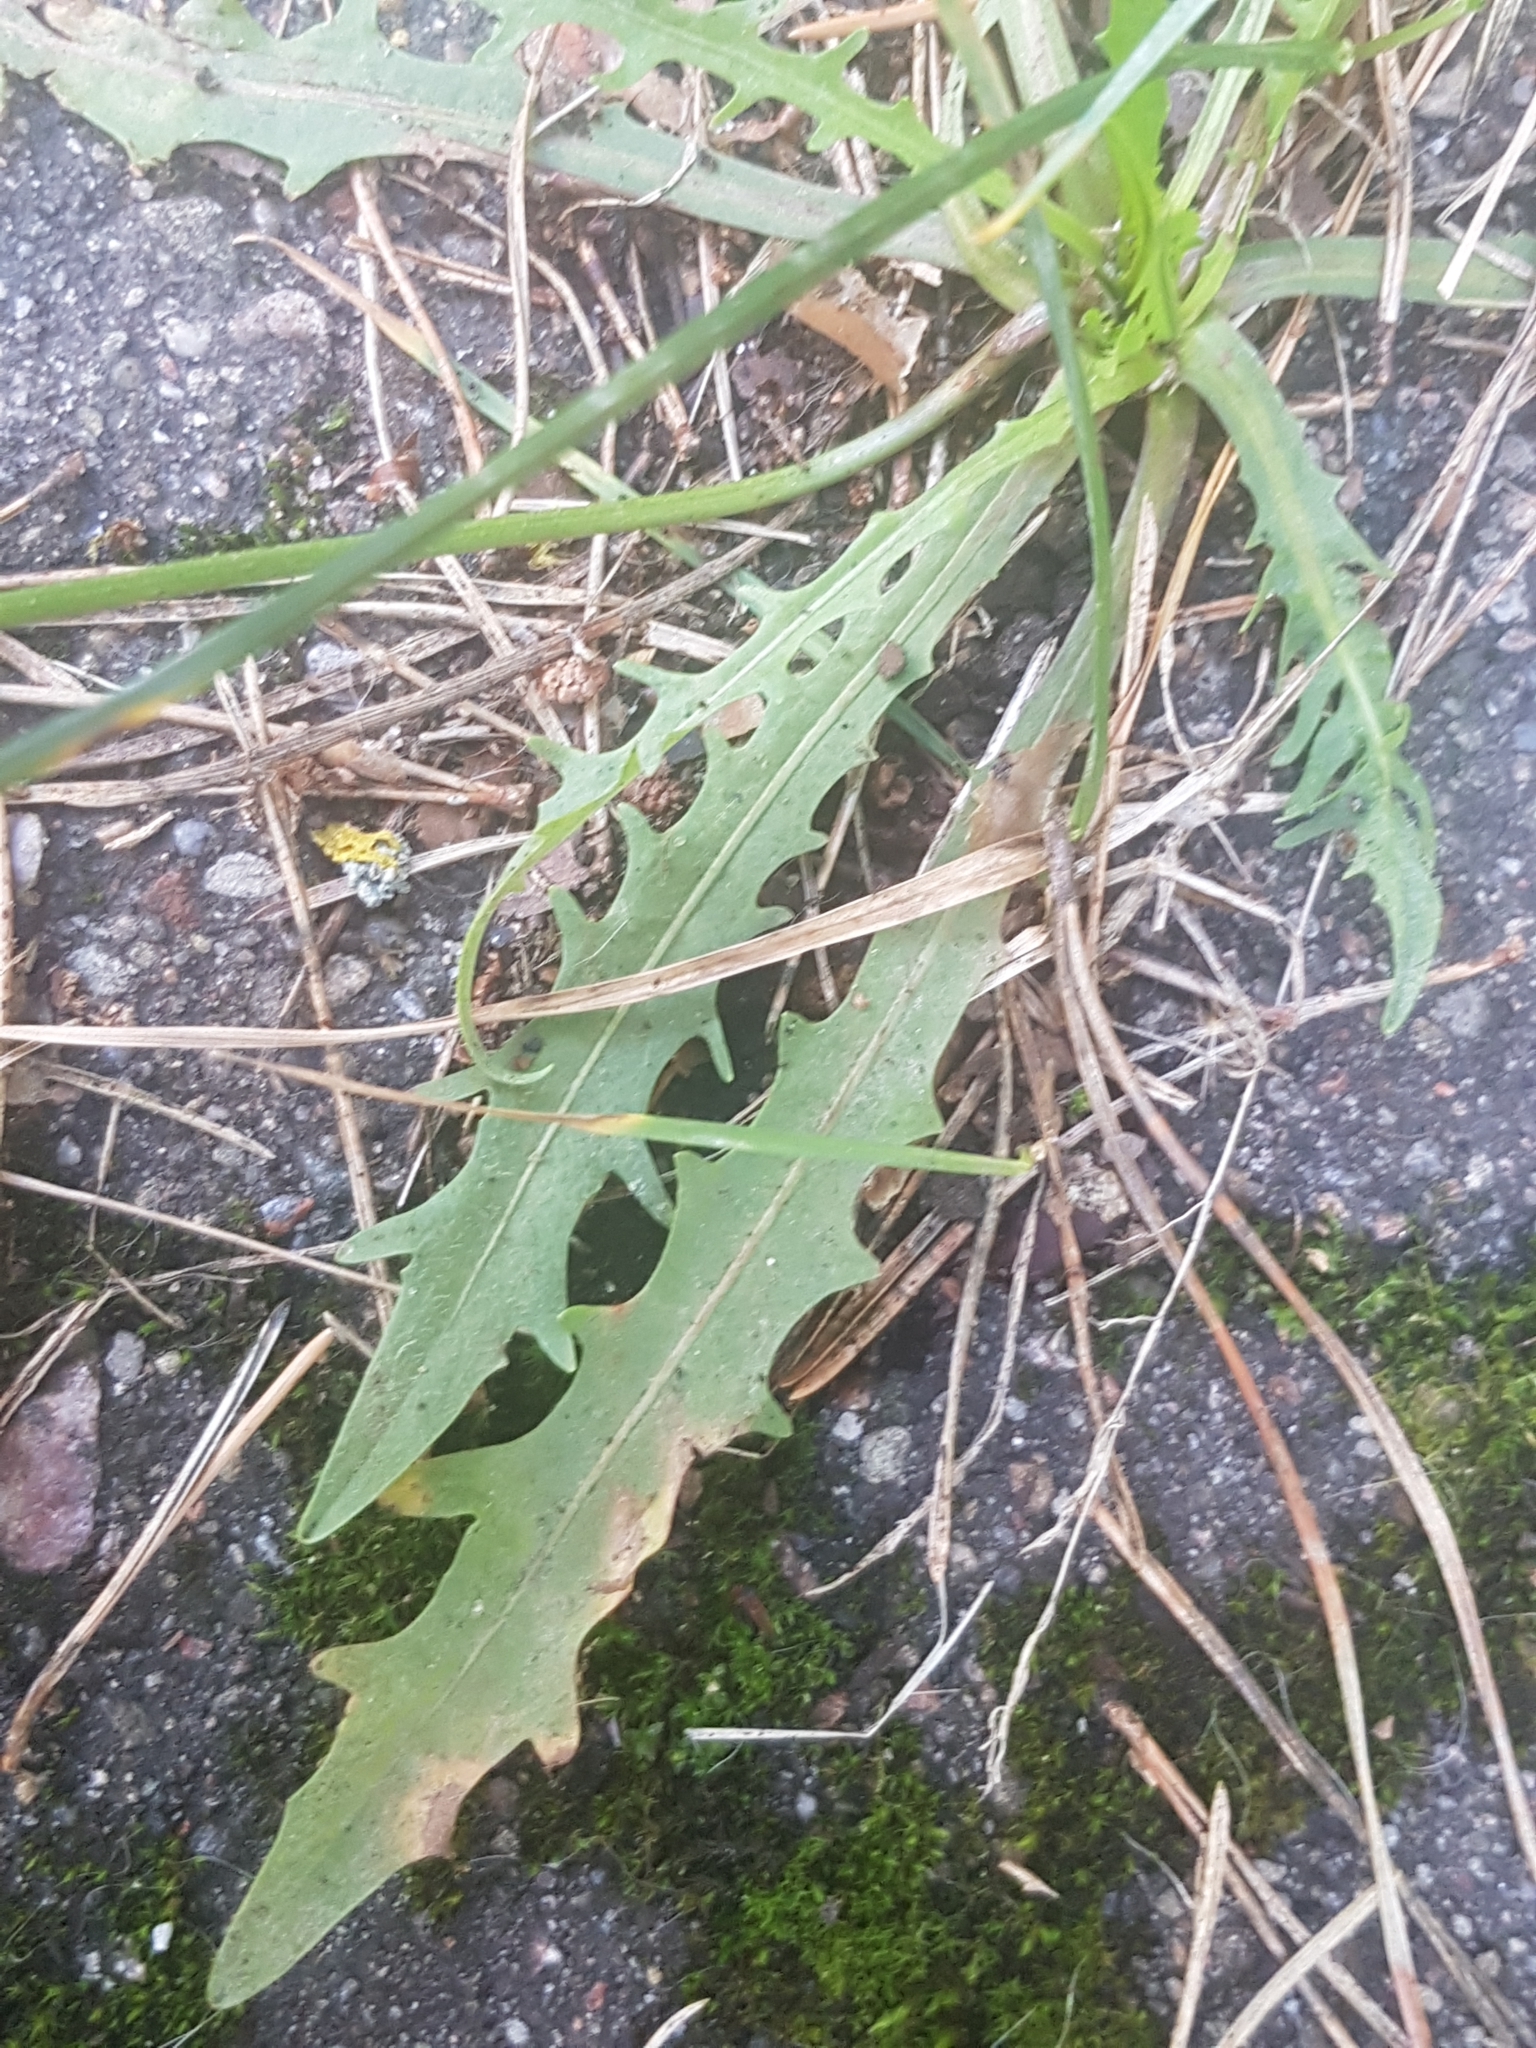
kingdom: Plantae
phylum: Tracheophyta
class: Magnoliopsida
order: Asterales
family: Asteraceae
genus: Scorzoneroides
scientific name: Scorzoneroides autumnalis
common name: Autumn hawkbit
